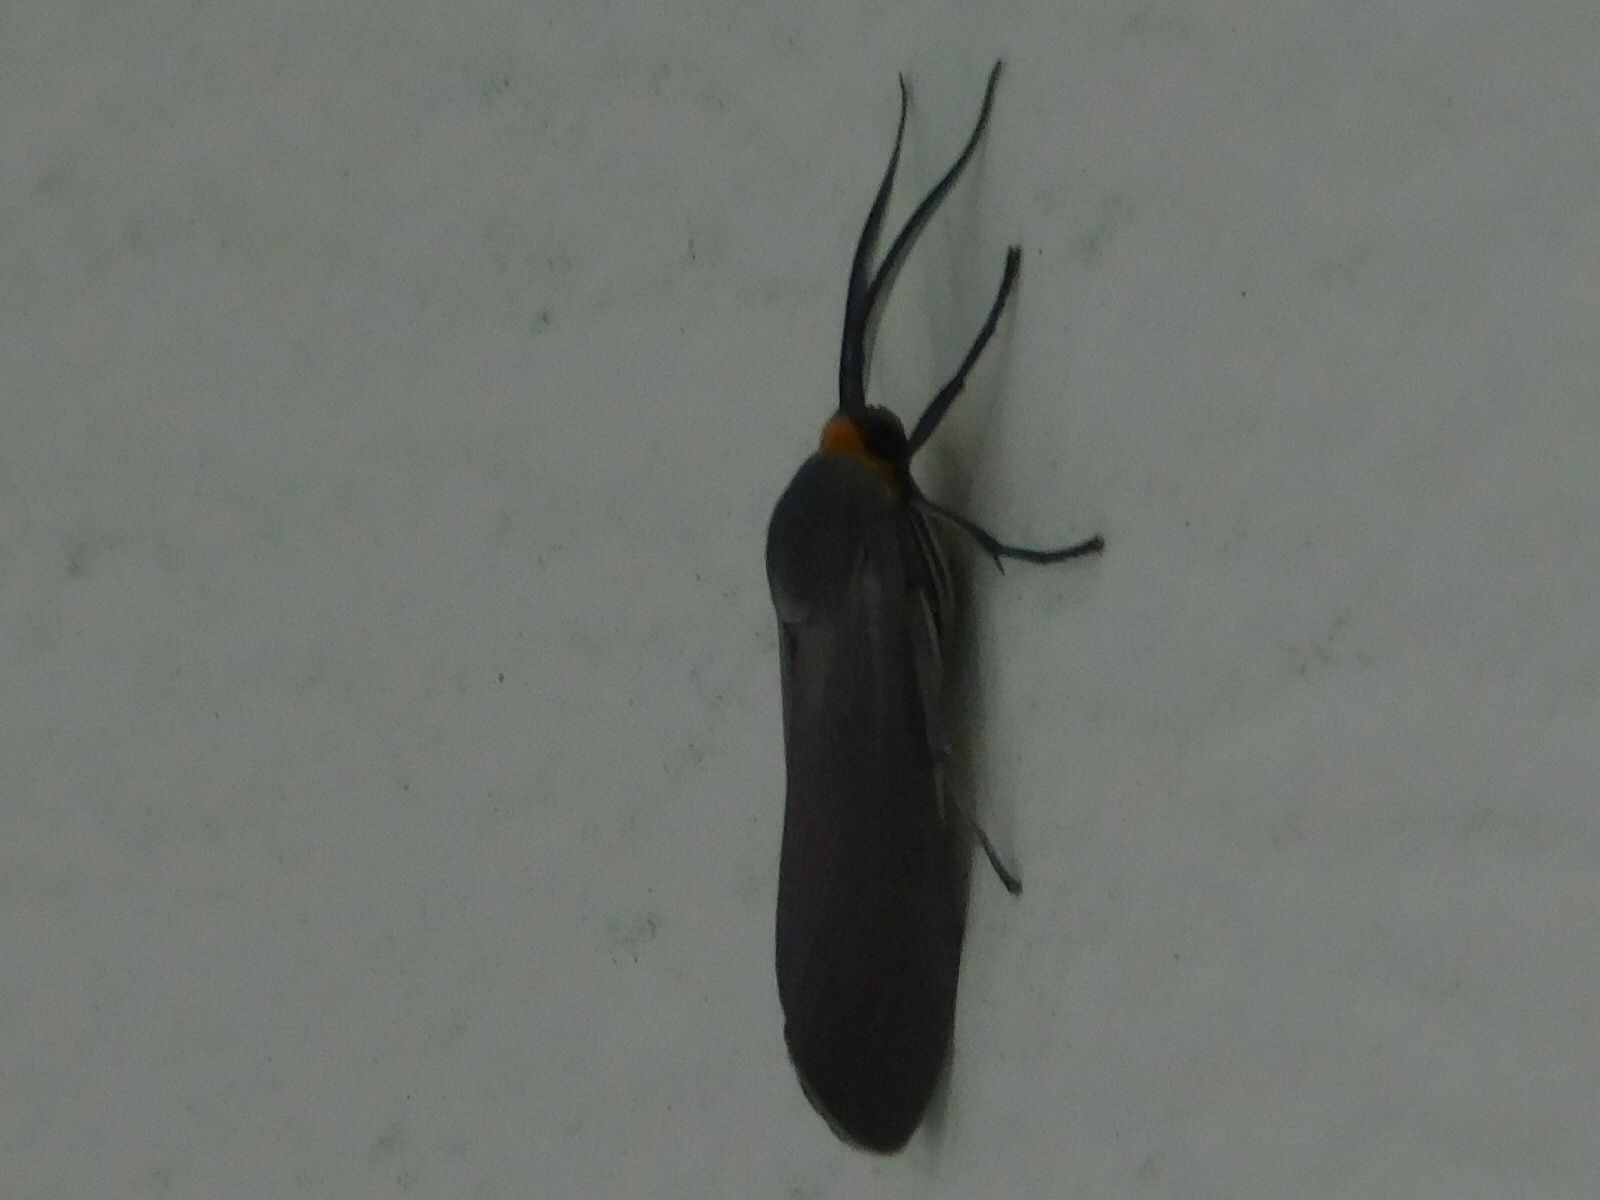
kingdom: Animalia
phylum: Arthropoda
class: Insecta
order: Lepidoptera
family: Erebidae
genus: Lymire
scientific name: Lymire edwardsii
